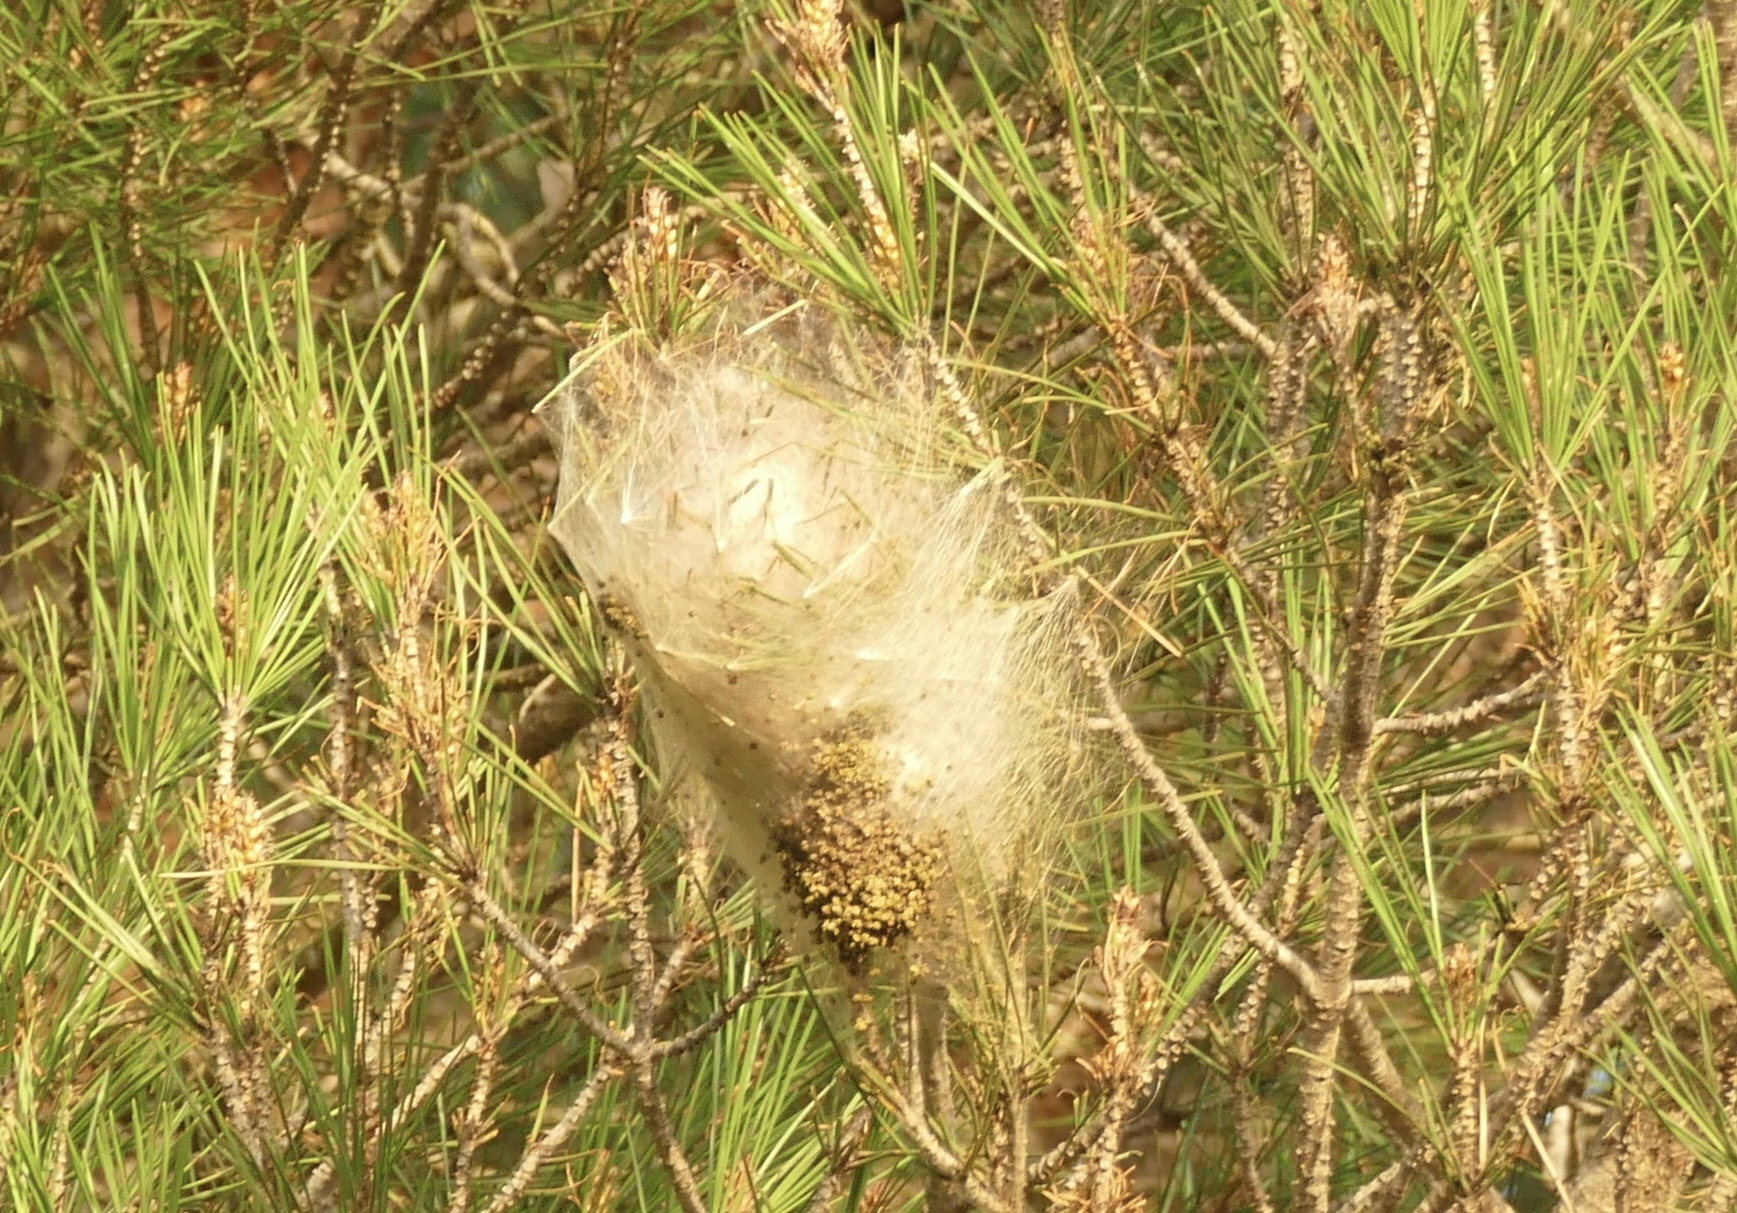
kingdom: Animalia
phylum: Arthropoda
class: Insecta
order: Lepidoptera
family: Notodontidae
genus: Thaumetopoea
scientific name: Thaumetopoea pityocampa
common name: Pine processionary
